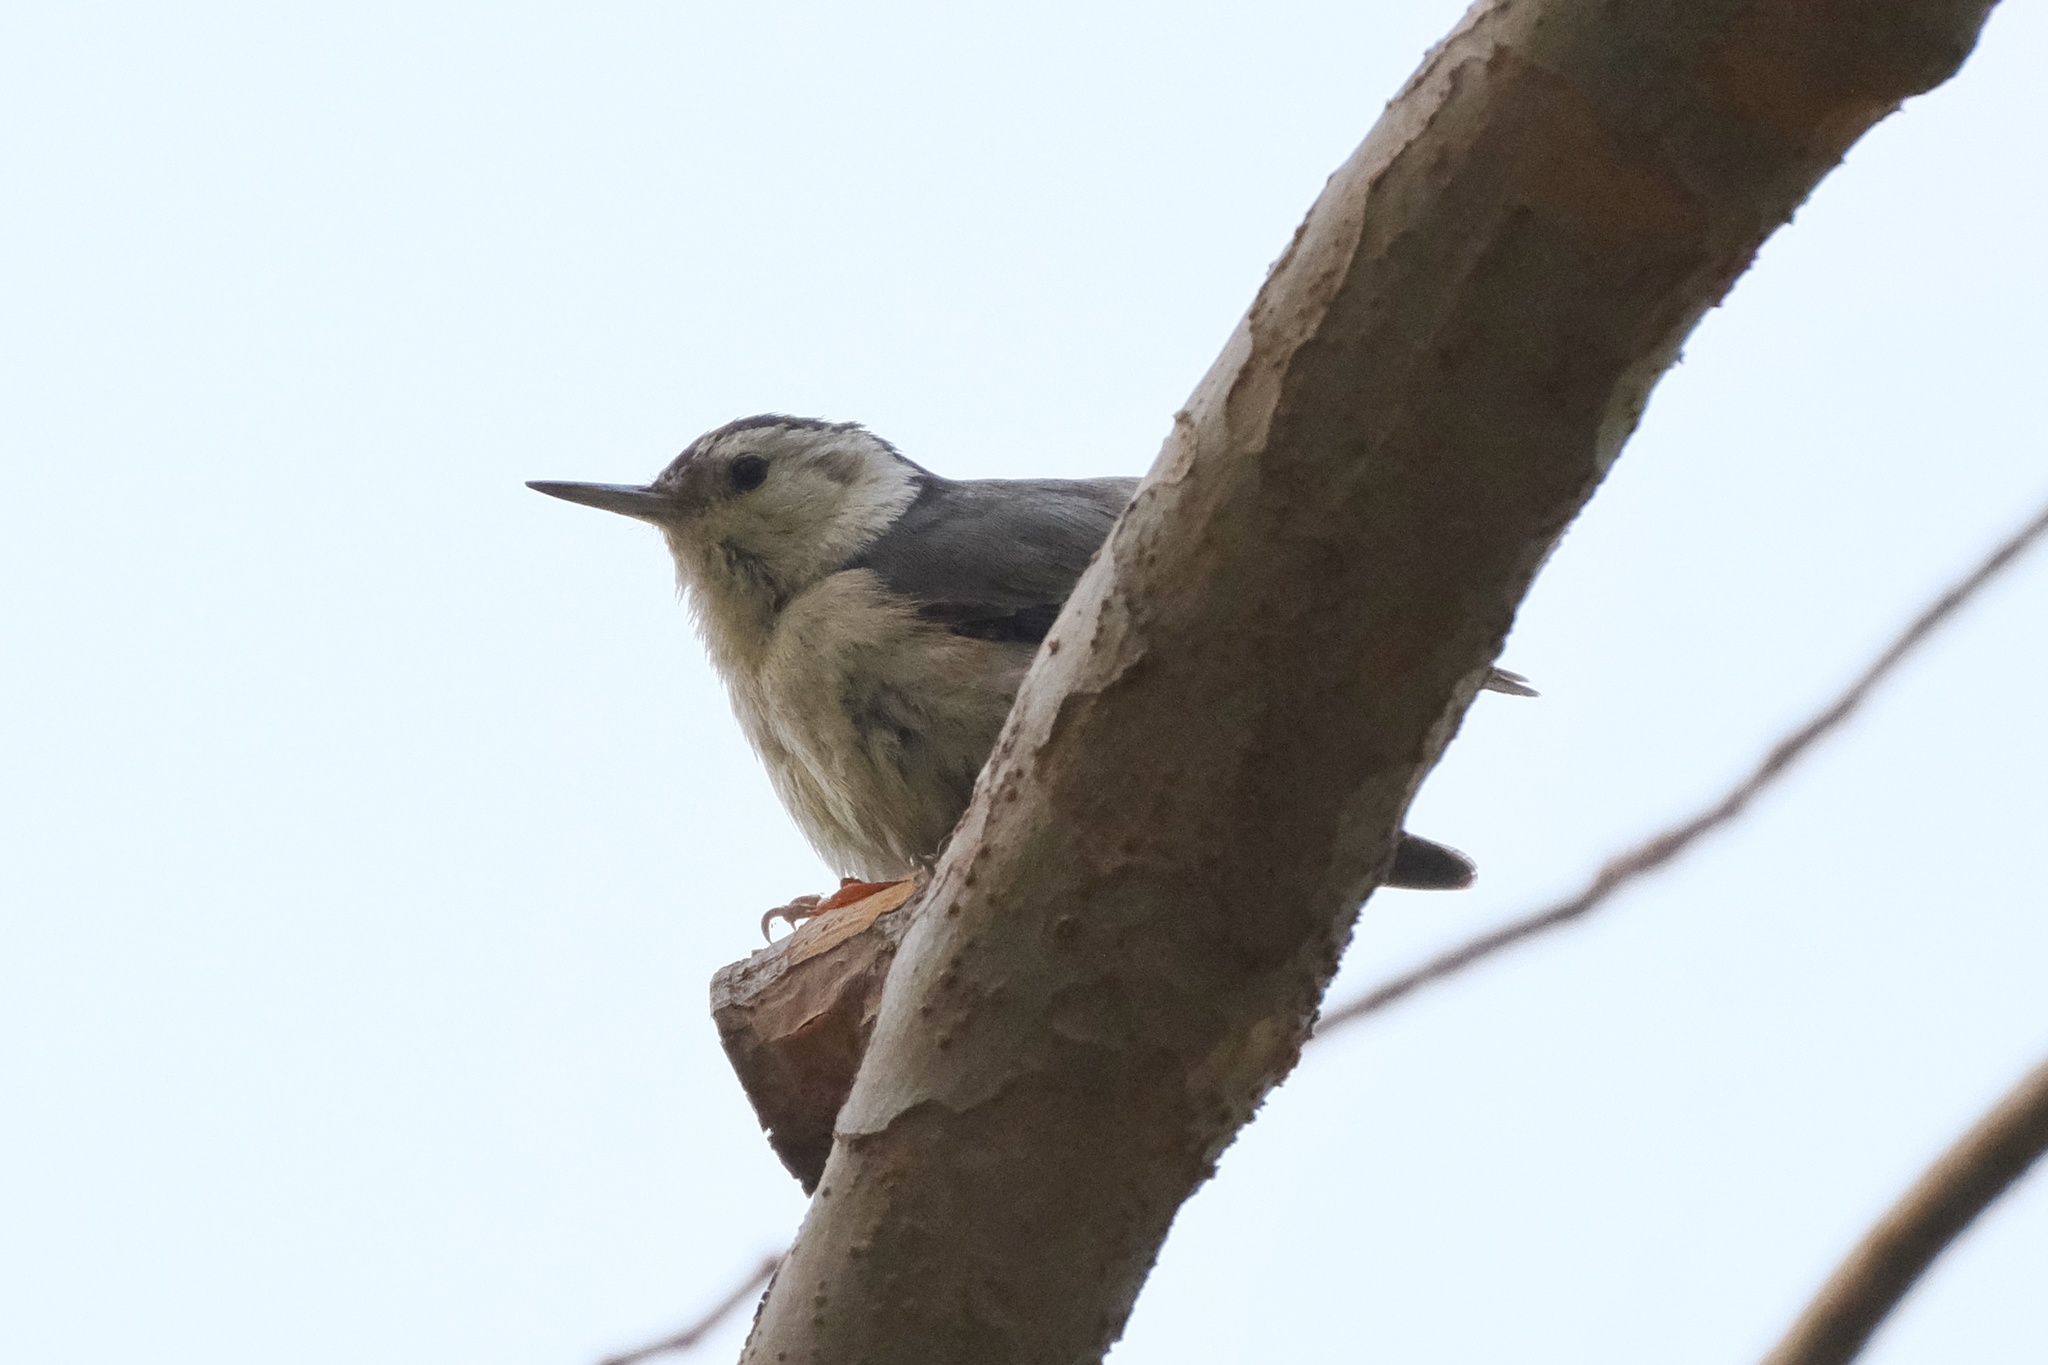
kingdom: Animalia
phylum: Chordata
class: Aves
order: Passeriformes
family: Sittidae
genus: Sitta
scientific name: Sitta carolinensis
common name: White-breasted nuthatch
